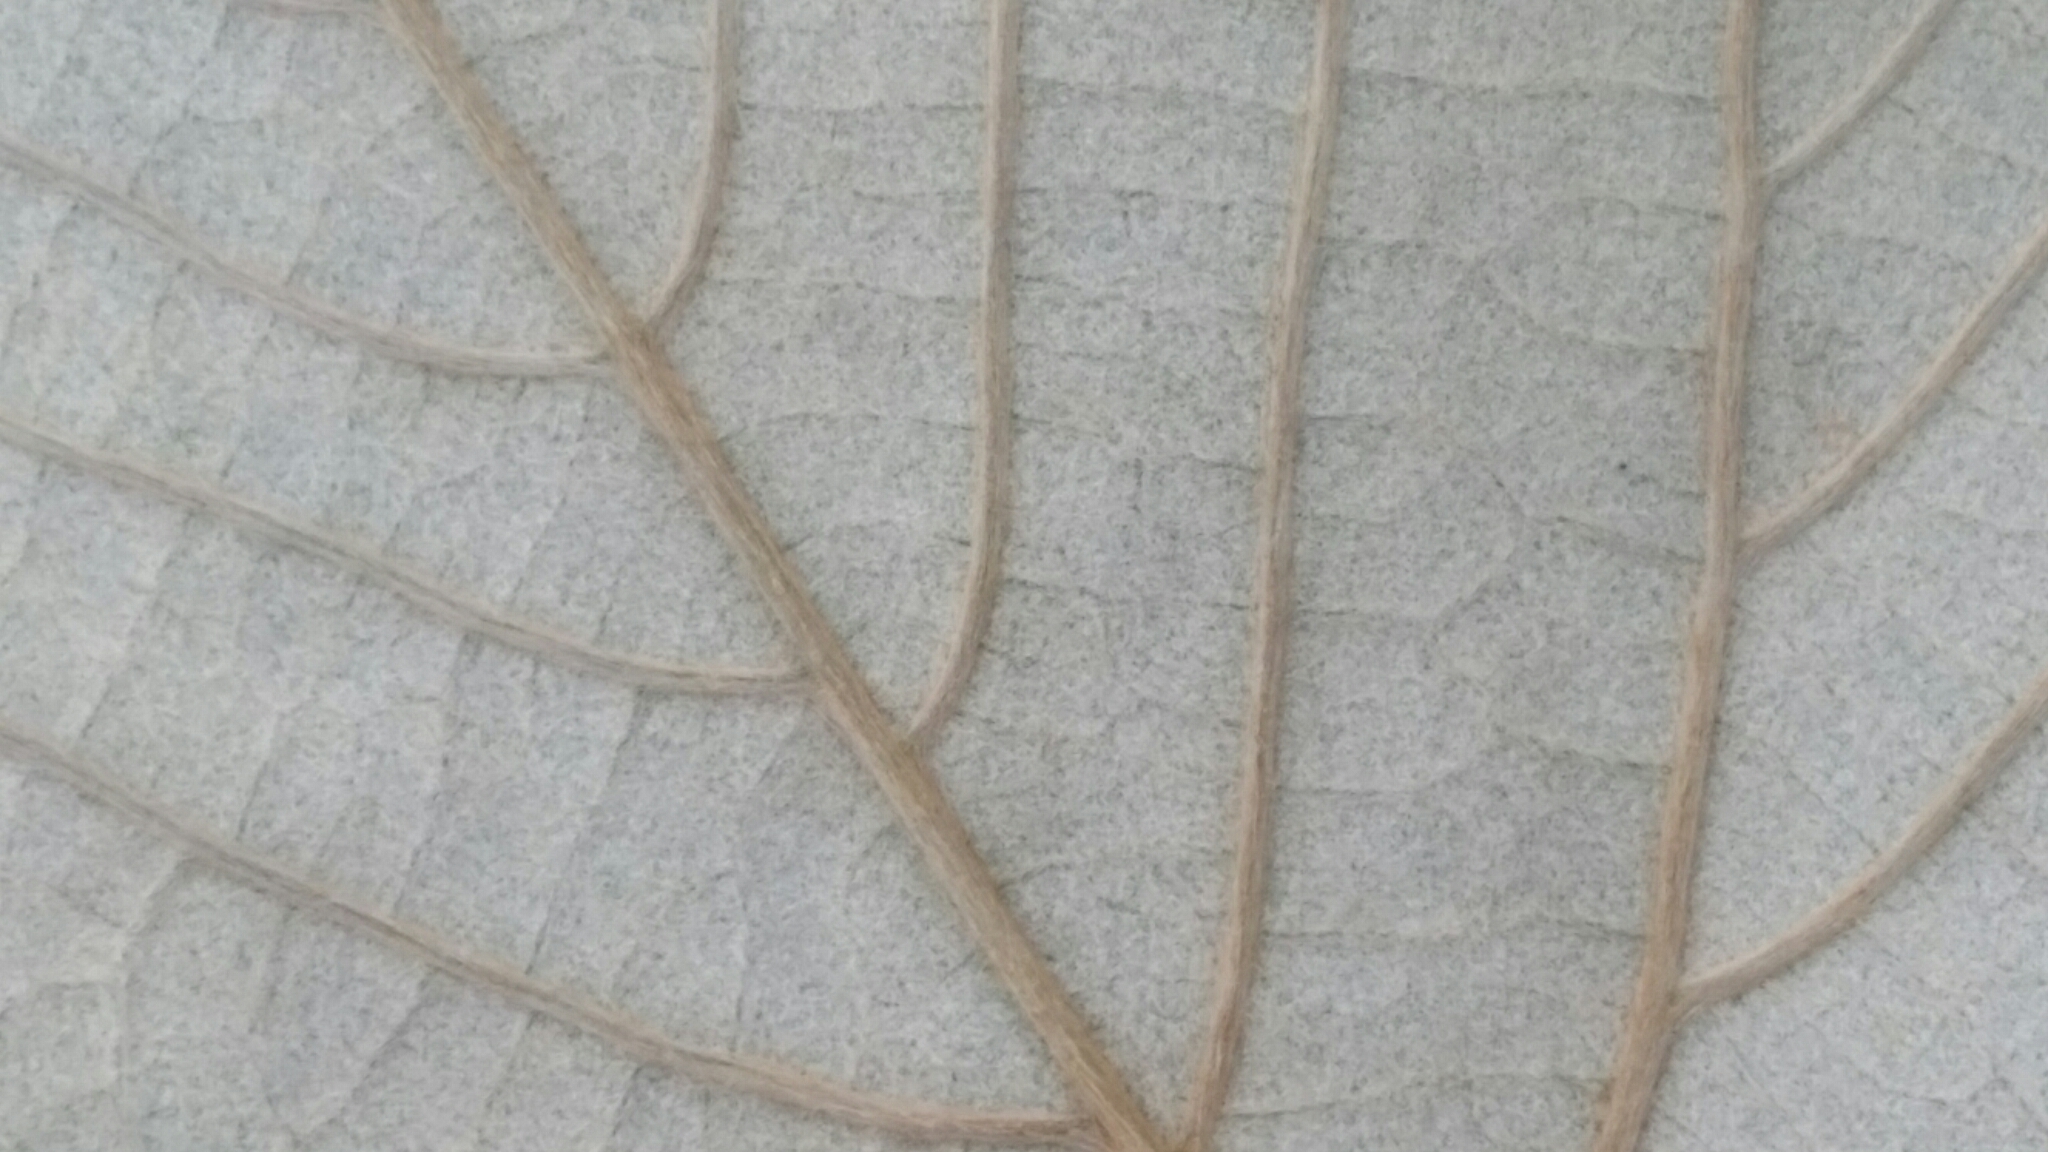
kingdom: Plantae
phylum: Tracheophyta
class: Magnoliopsida
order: Vitales
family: Vitaceae
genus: Vitis
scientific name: Vitis shuttleworthii
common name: Caloosa grape
